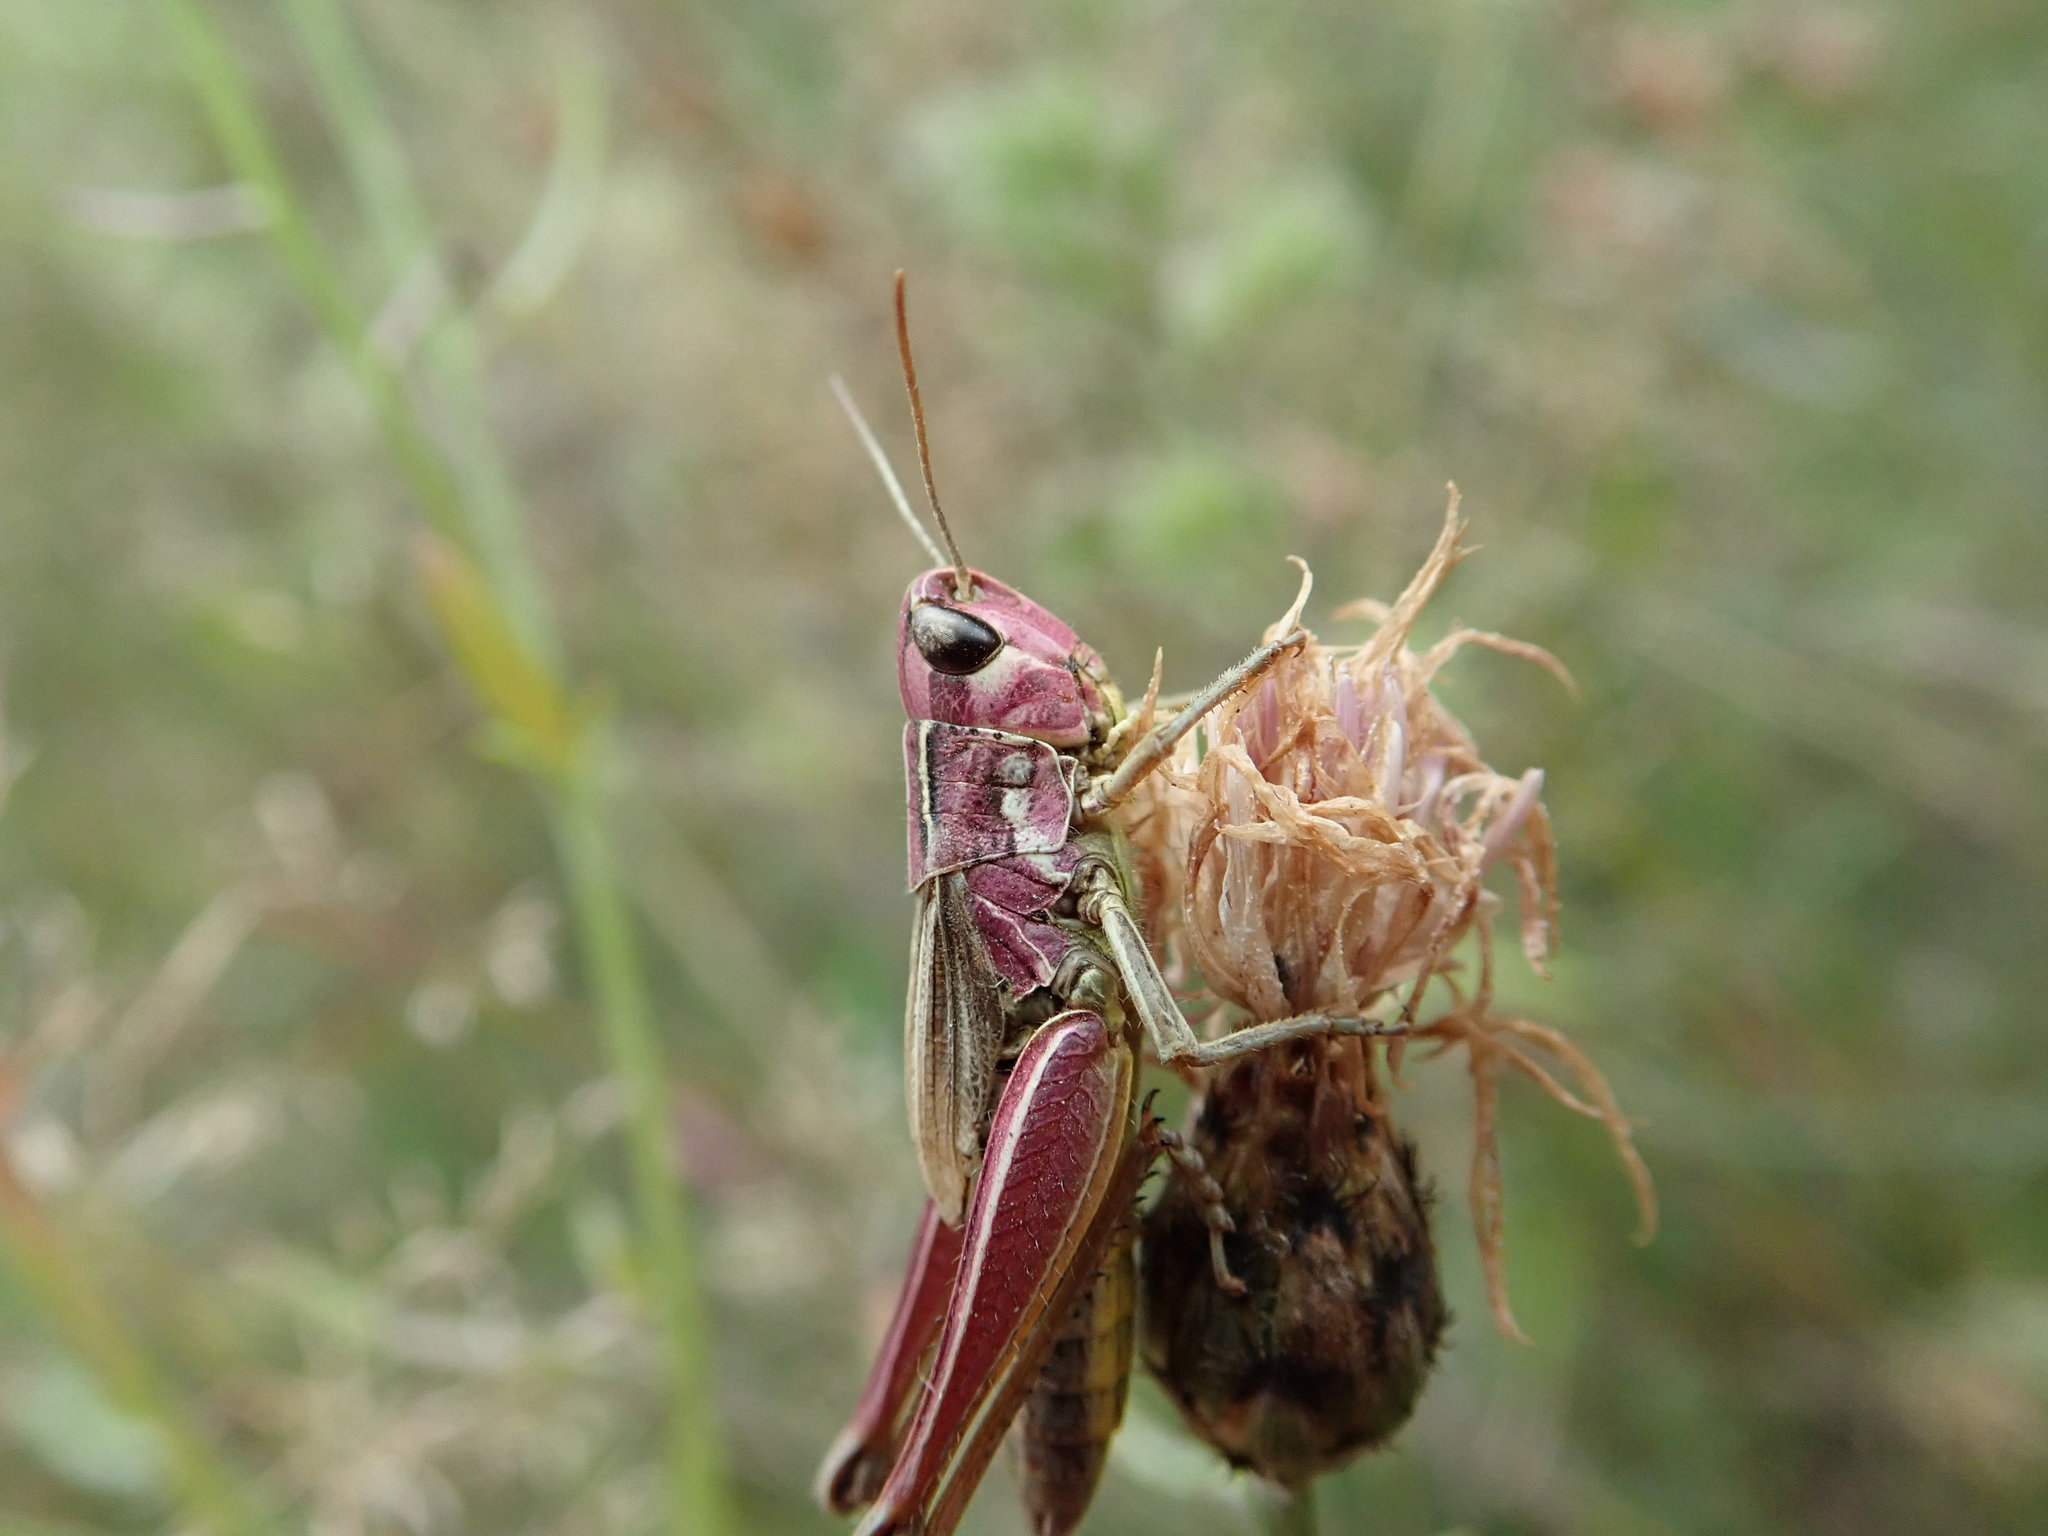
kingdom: Animalia
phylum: Arthropoda
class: Insecta
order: Orthoptera
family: Acrididae
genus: Pseudochorthippus
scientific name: Pseudochorthippus parallelus
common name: Meadow grasshopper
